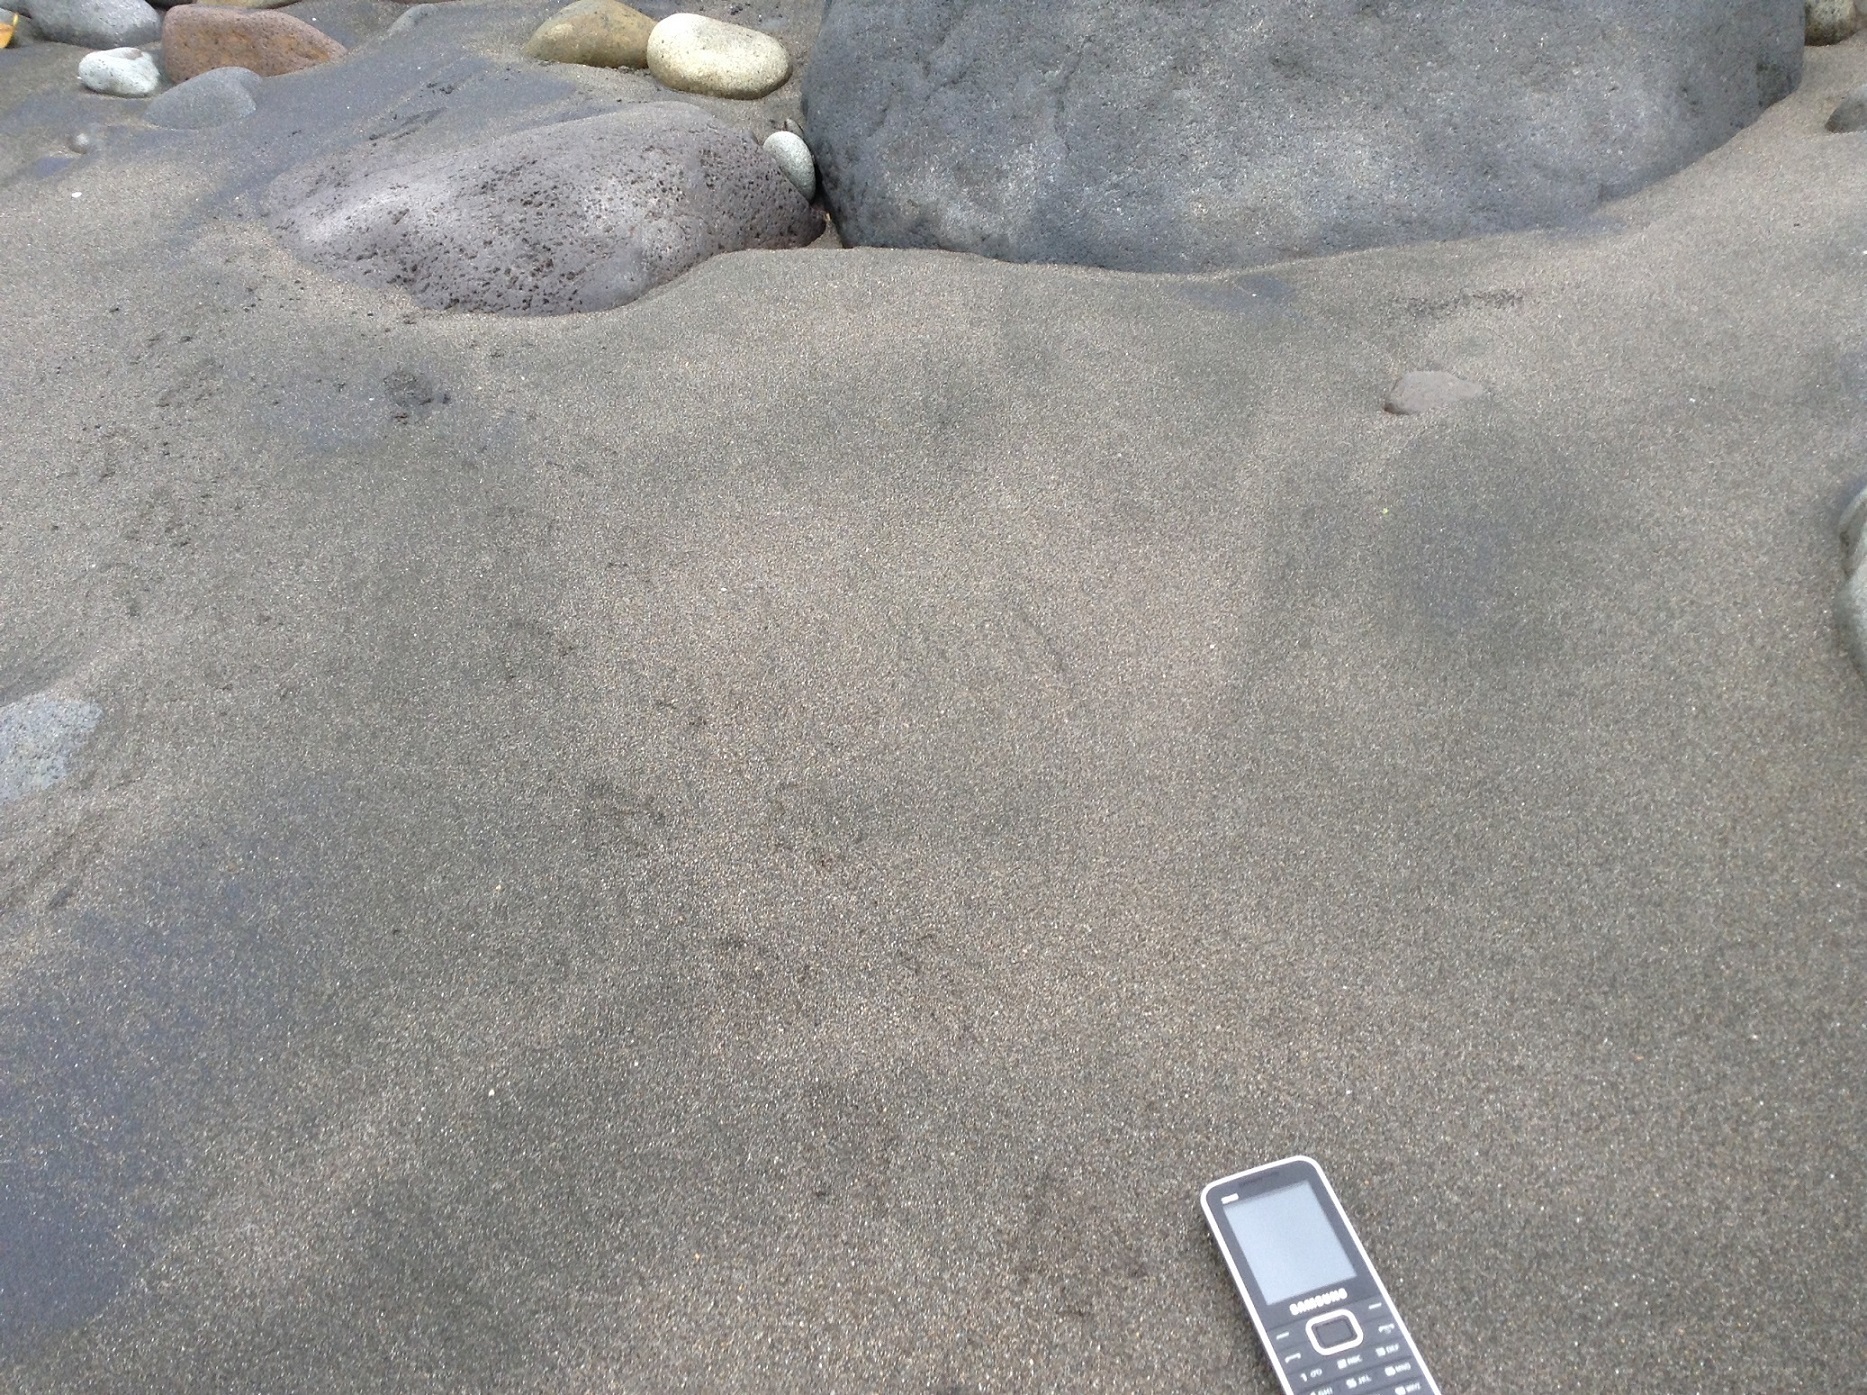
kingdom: Animalia
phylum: Chordata
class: Aves
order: Sphenisciformes
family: Spheniscidae
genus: Eudyptula
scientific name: Eudyptula minor
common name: Little penguin
